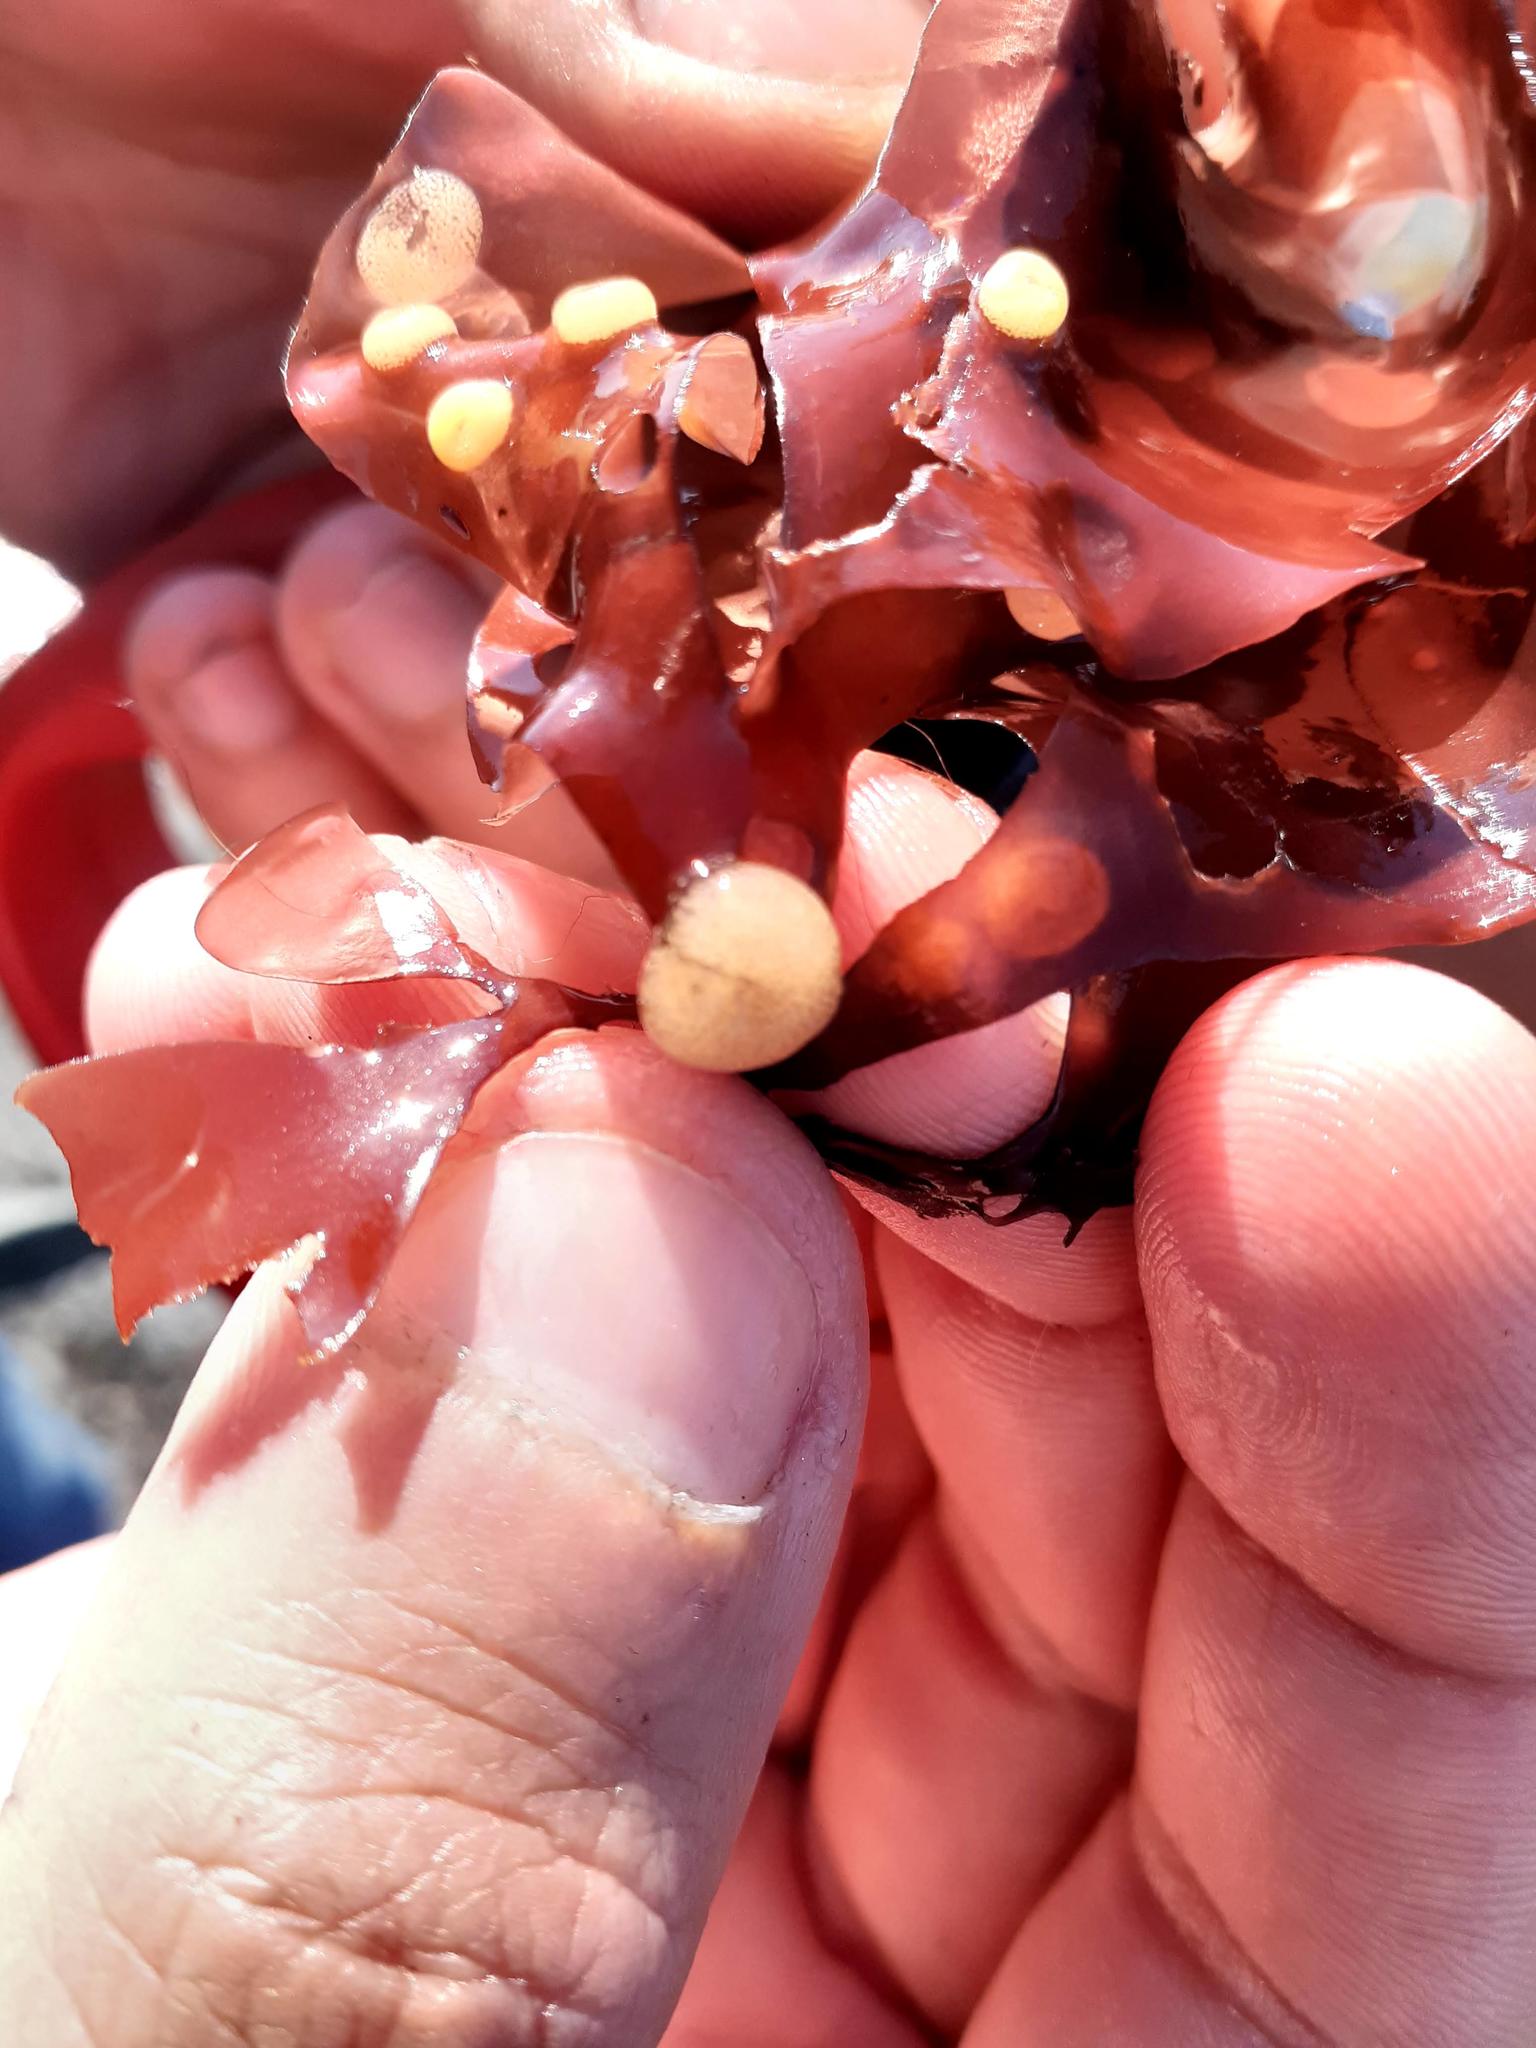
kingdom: Animalia
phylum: Mollusca
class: Gastropoda
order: Littorinimorpha
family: Littorinidae
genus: Lacuna
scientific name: Lacuna vincta
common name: Banded chink shell
